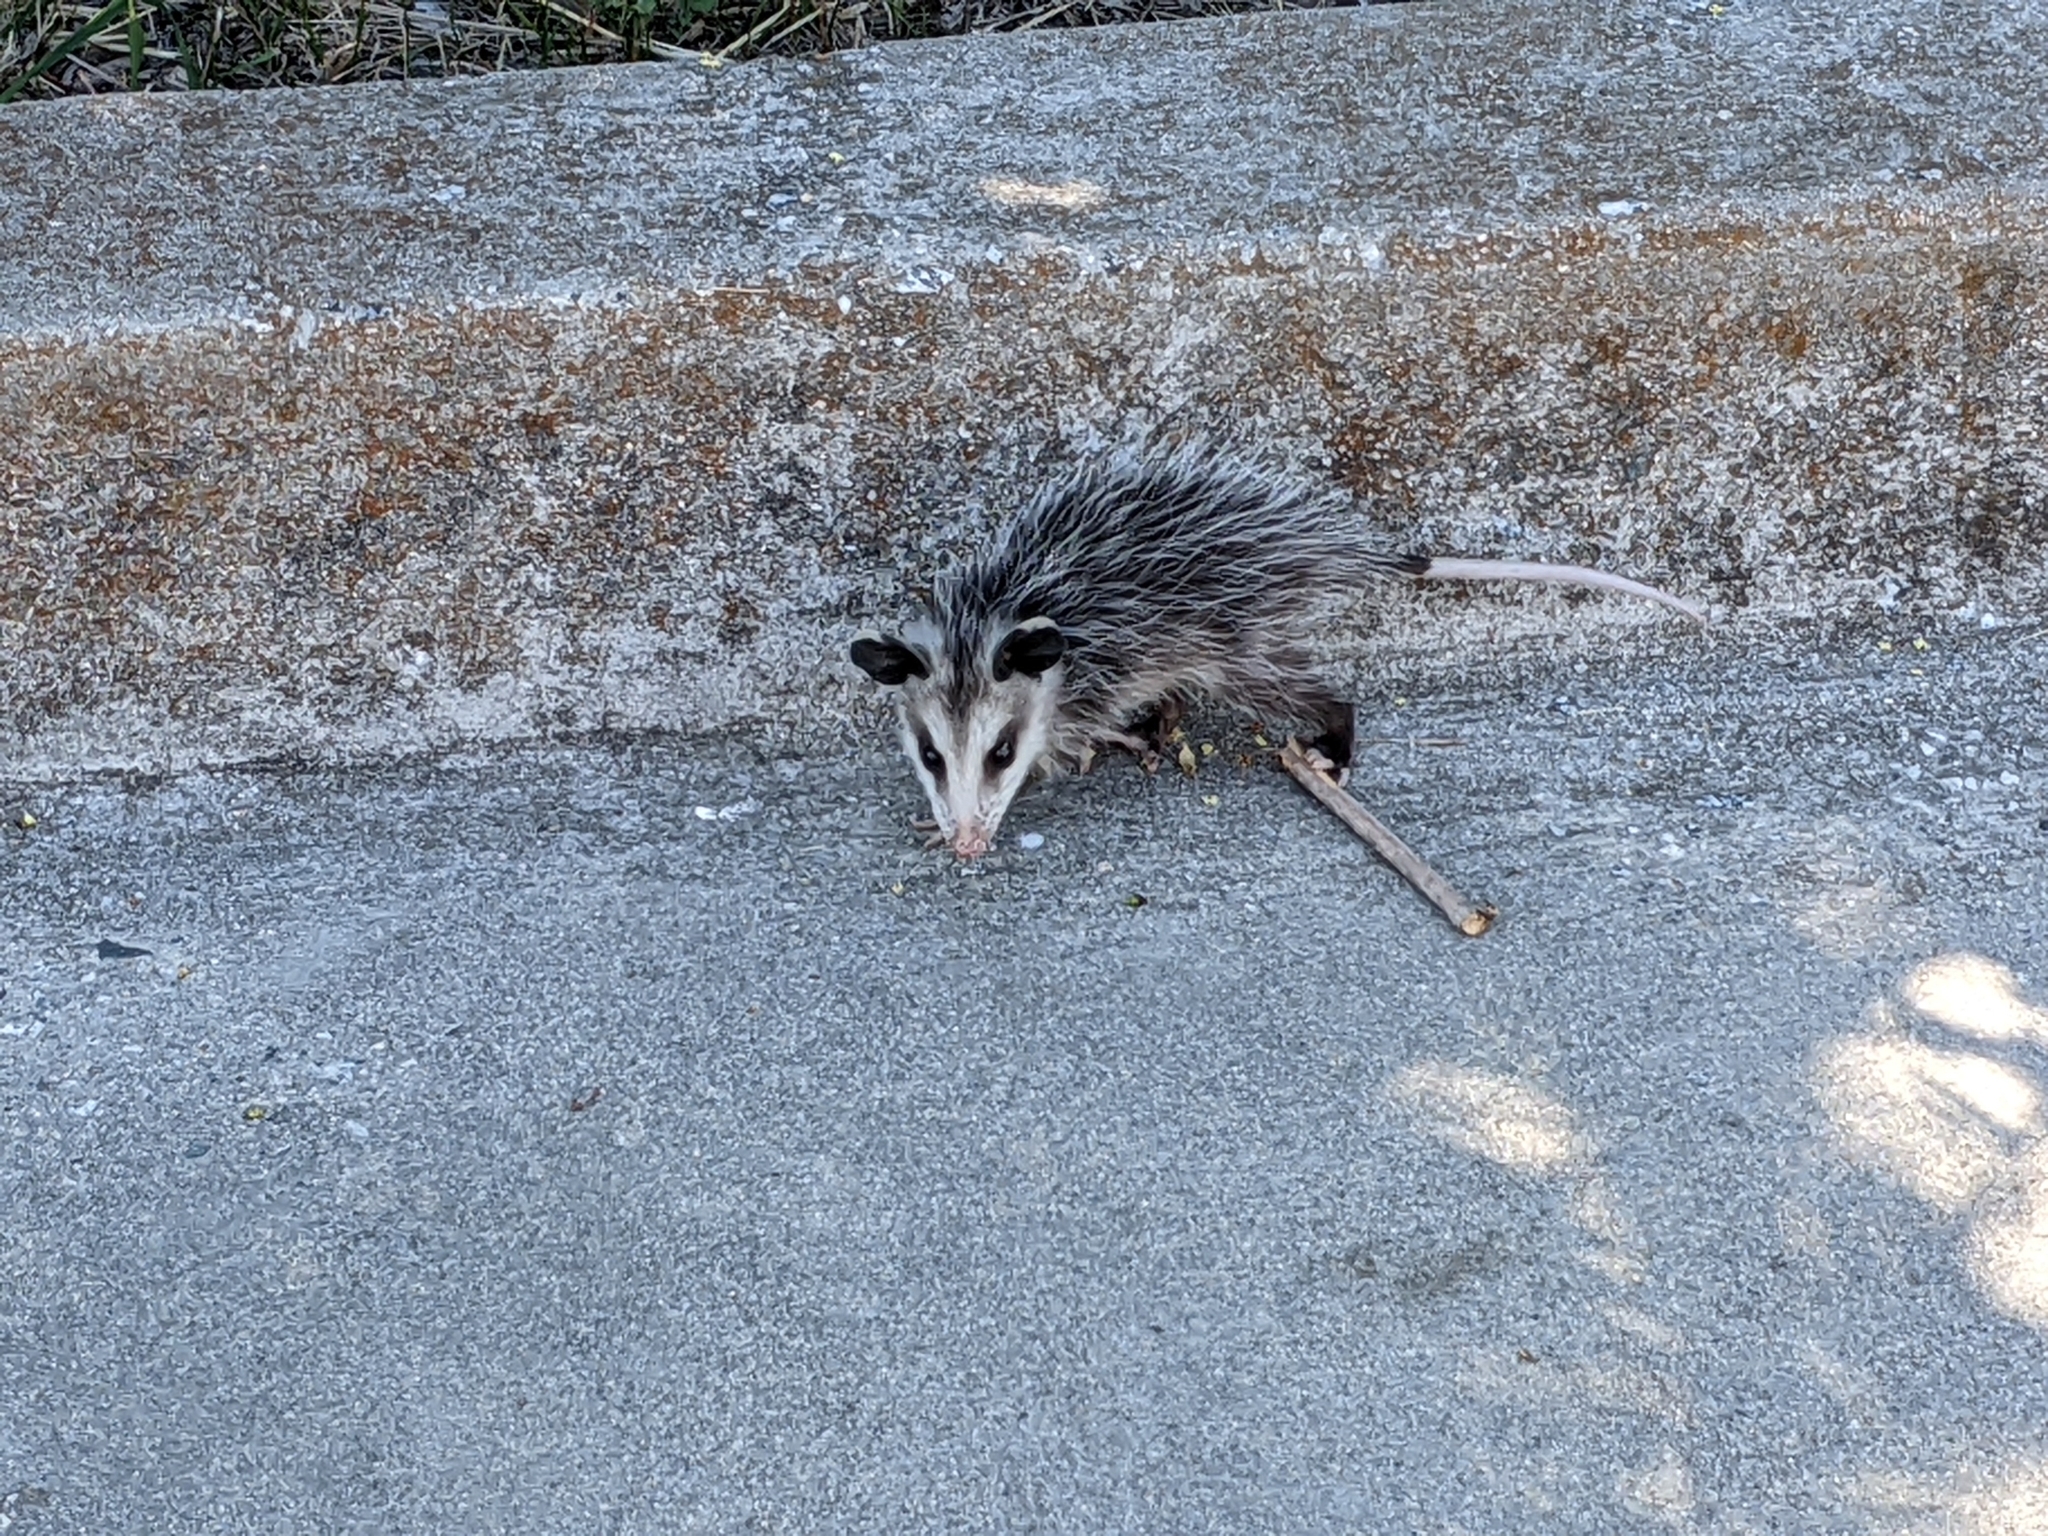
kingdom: Animalia
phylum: Chordata
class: Mammalia
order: Didelphimorphia
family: Didelphidae
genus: Didelphis
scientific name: Didelphis virginiana
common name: Virginia opossum
